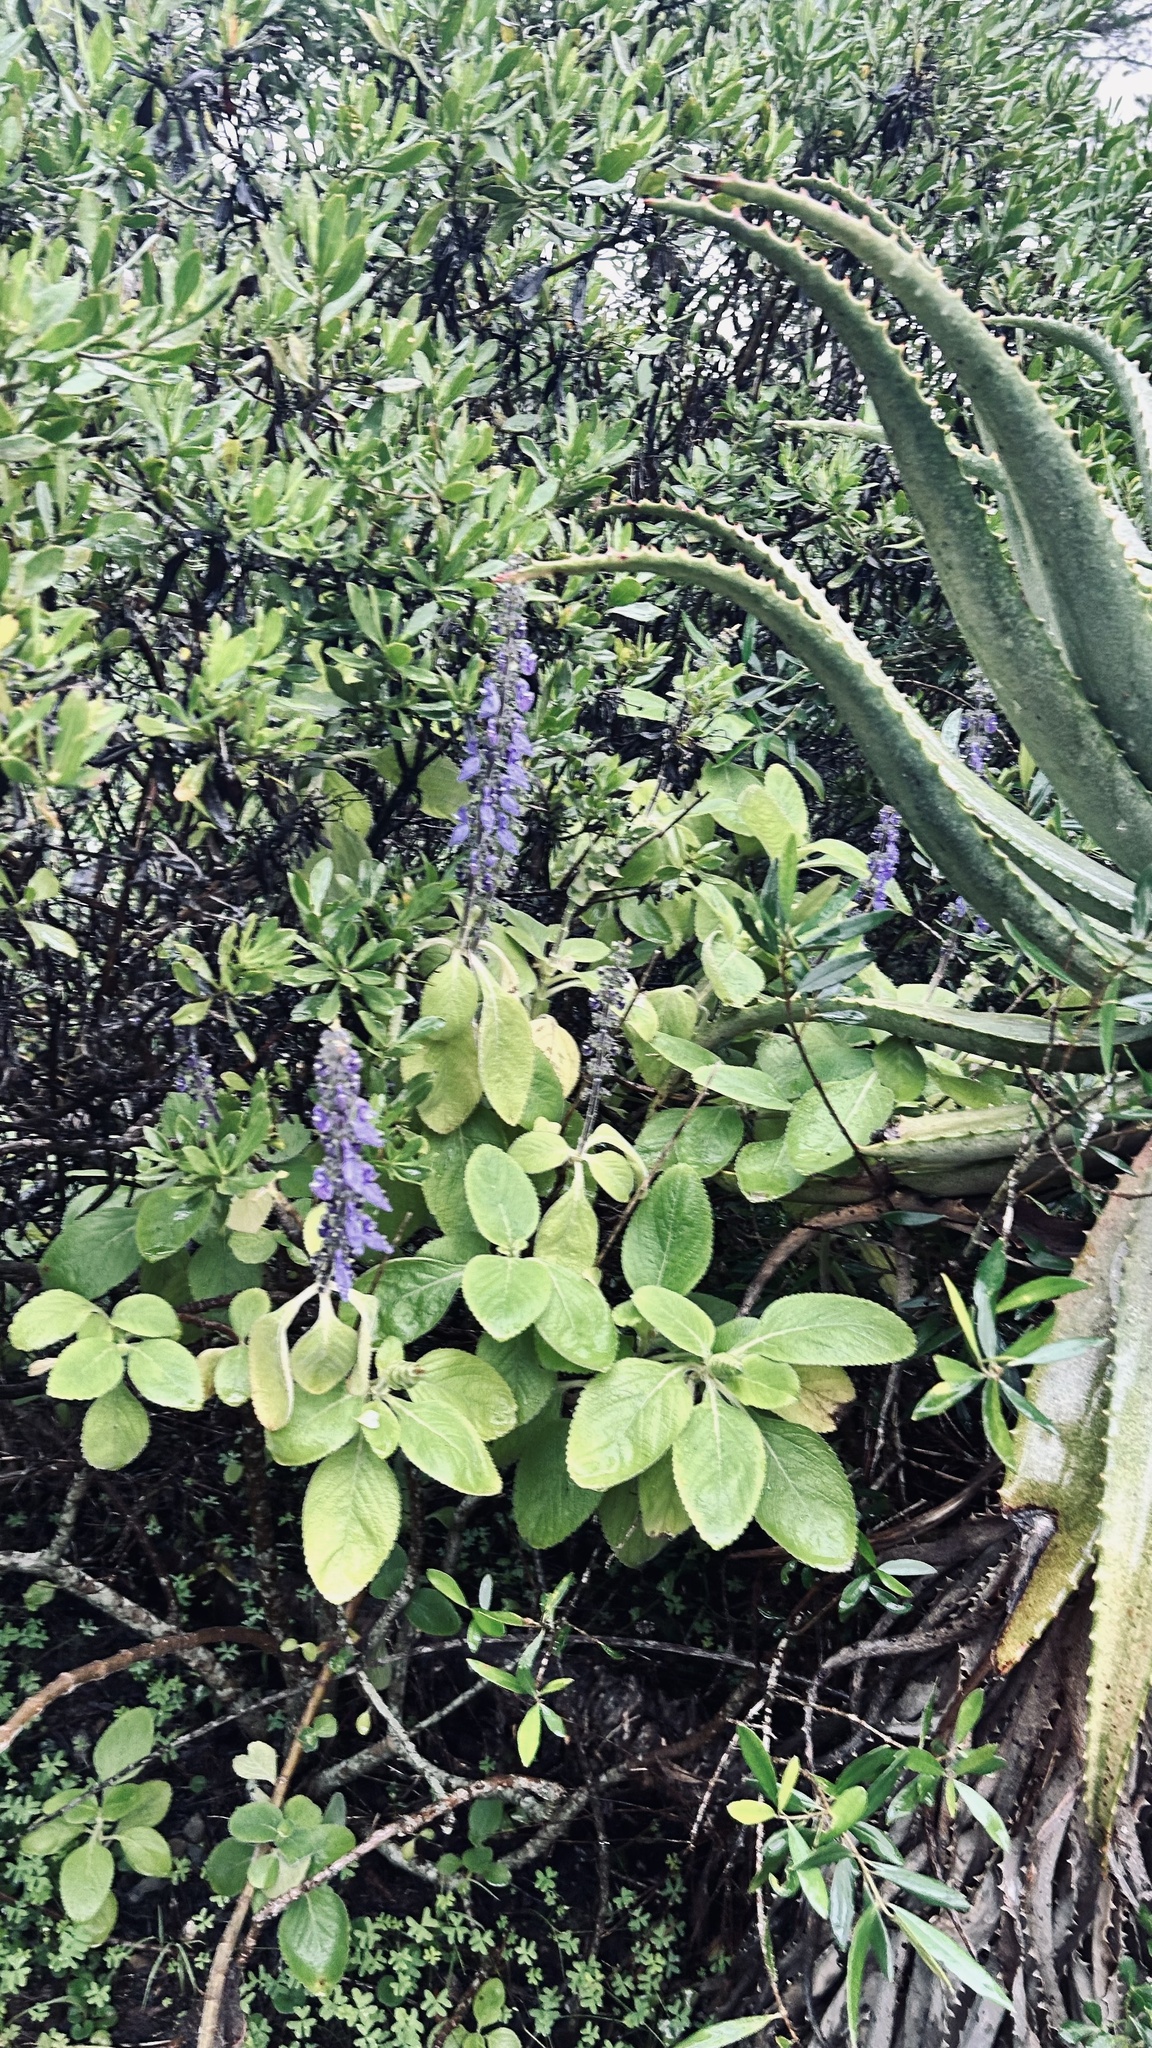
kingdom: Plantae
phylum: Tracheophyta
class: Magnoliopsida
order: Lamiales
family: Lamiaceae
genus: Coleus
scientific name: Coleus barbatus
